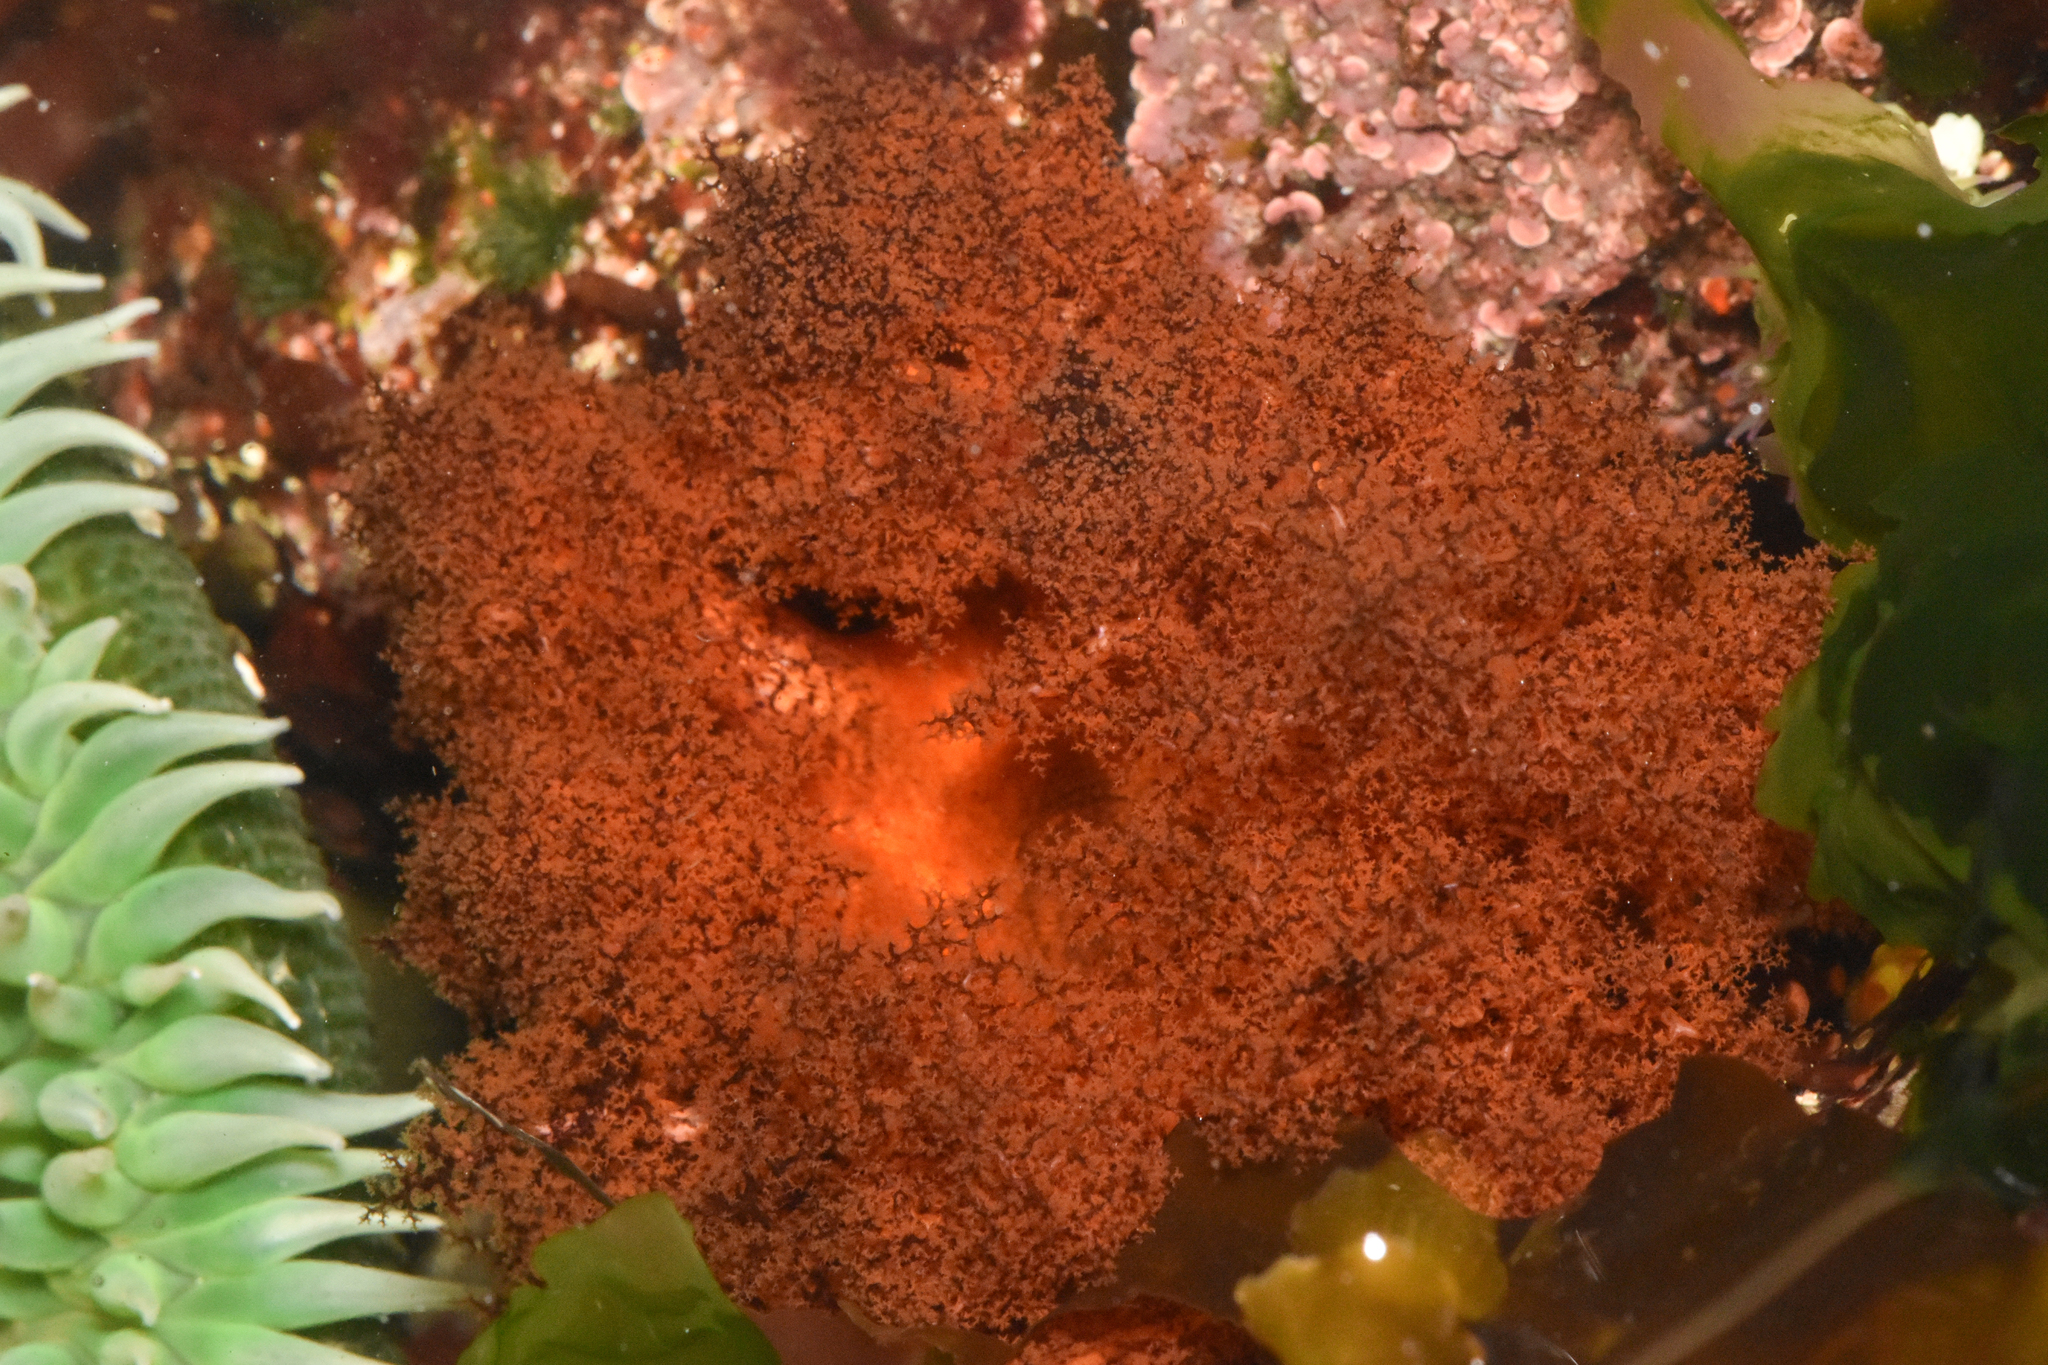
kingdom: Animalia
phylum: Echinodermata
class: Holothuroidea
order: Dendrochirotida
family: Cucumariidae
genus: Cucumaria
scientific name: Cucumaria miniata
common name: Orange sea cucumber
